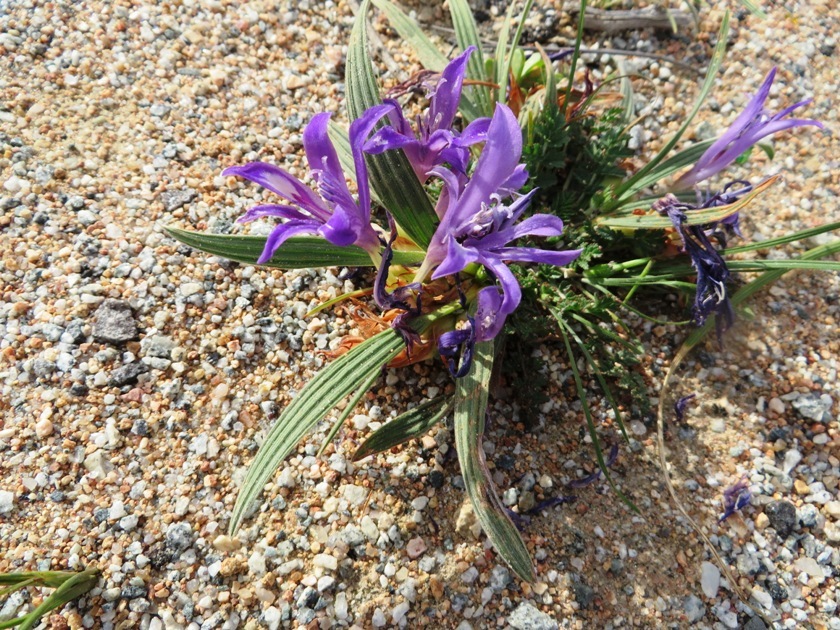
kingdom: Plantae
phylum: Tracheophyta
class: Liliopsida
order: Asparagales
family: Iridaceae
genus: Babiana
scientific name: Babiana attenuata
